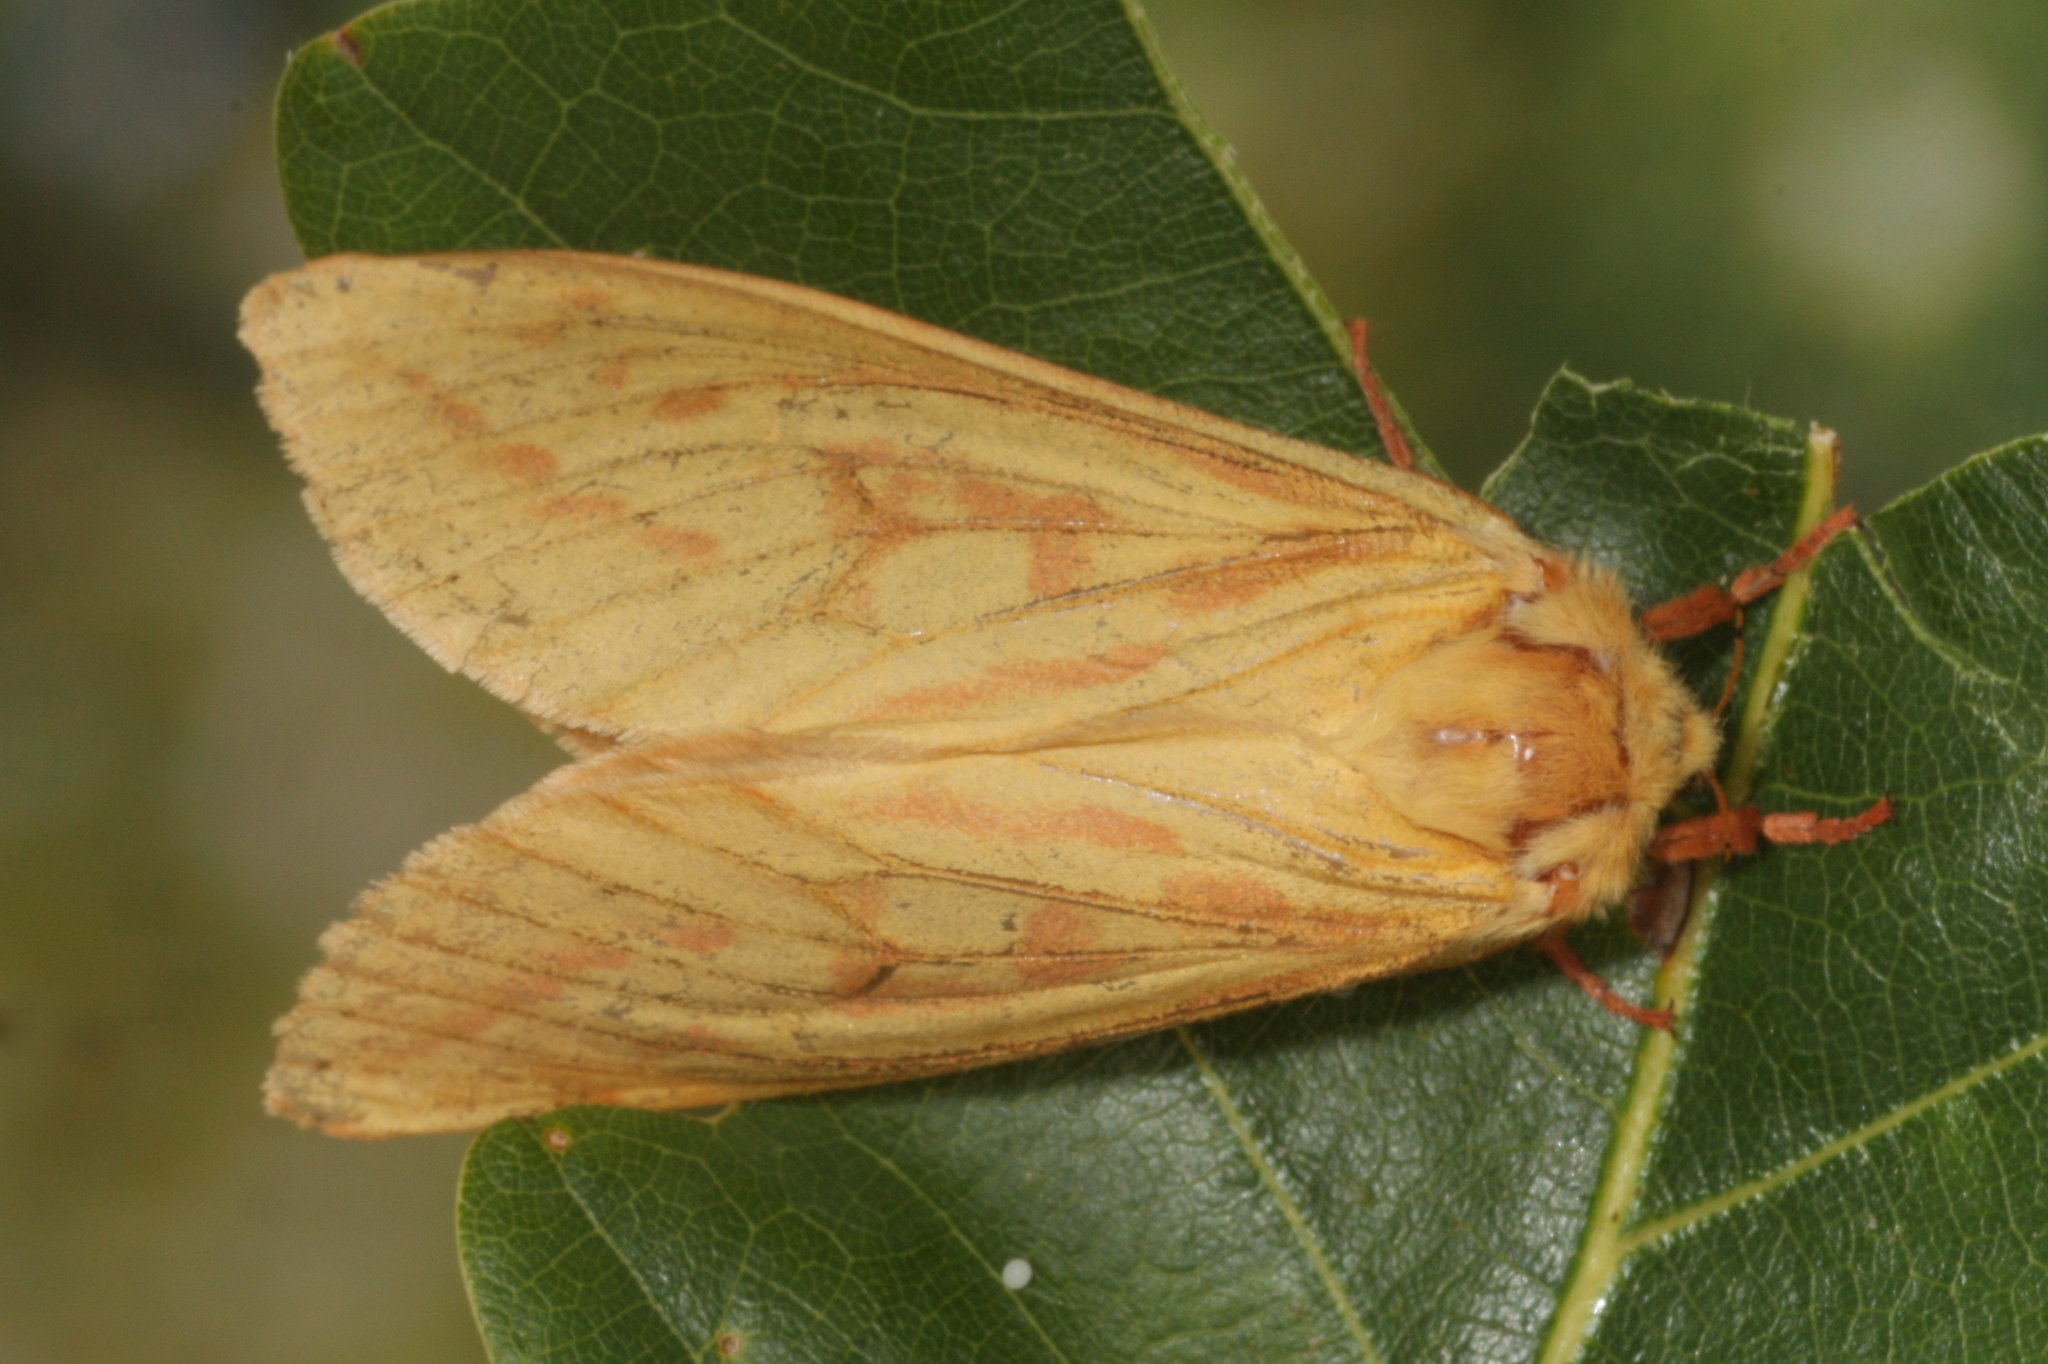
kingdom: Animalia
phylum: Arthropoda
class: Insecta
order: Lepidoptera
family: Hepialidae
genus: Hepialus
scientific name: Hepialus humuli
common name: Ghost moth
